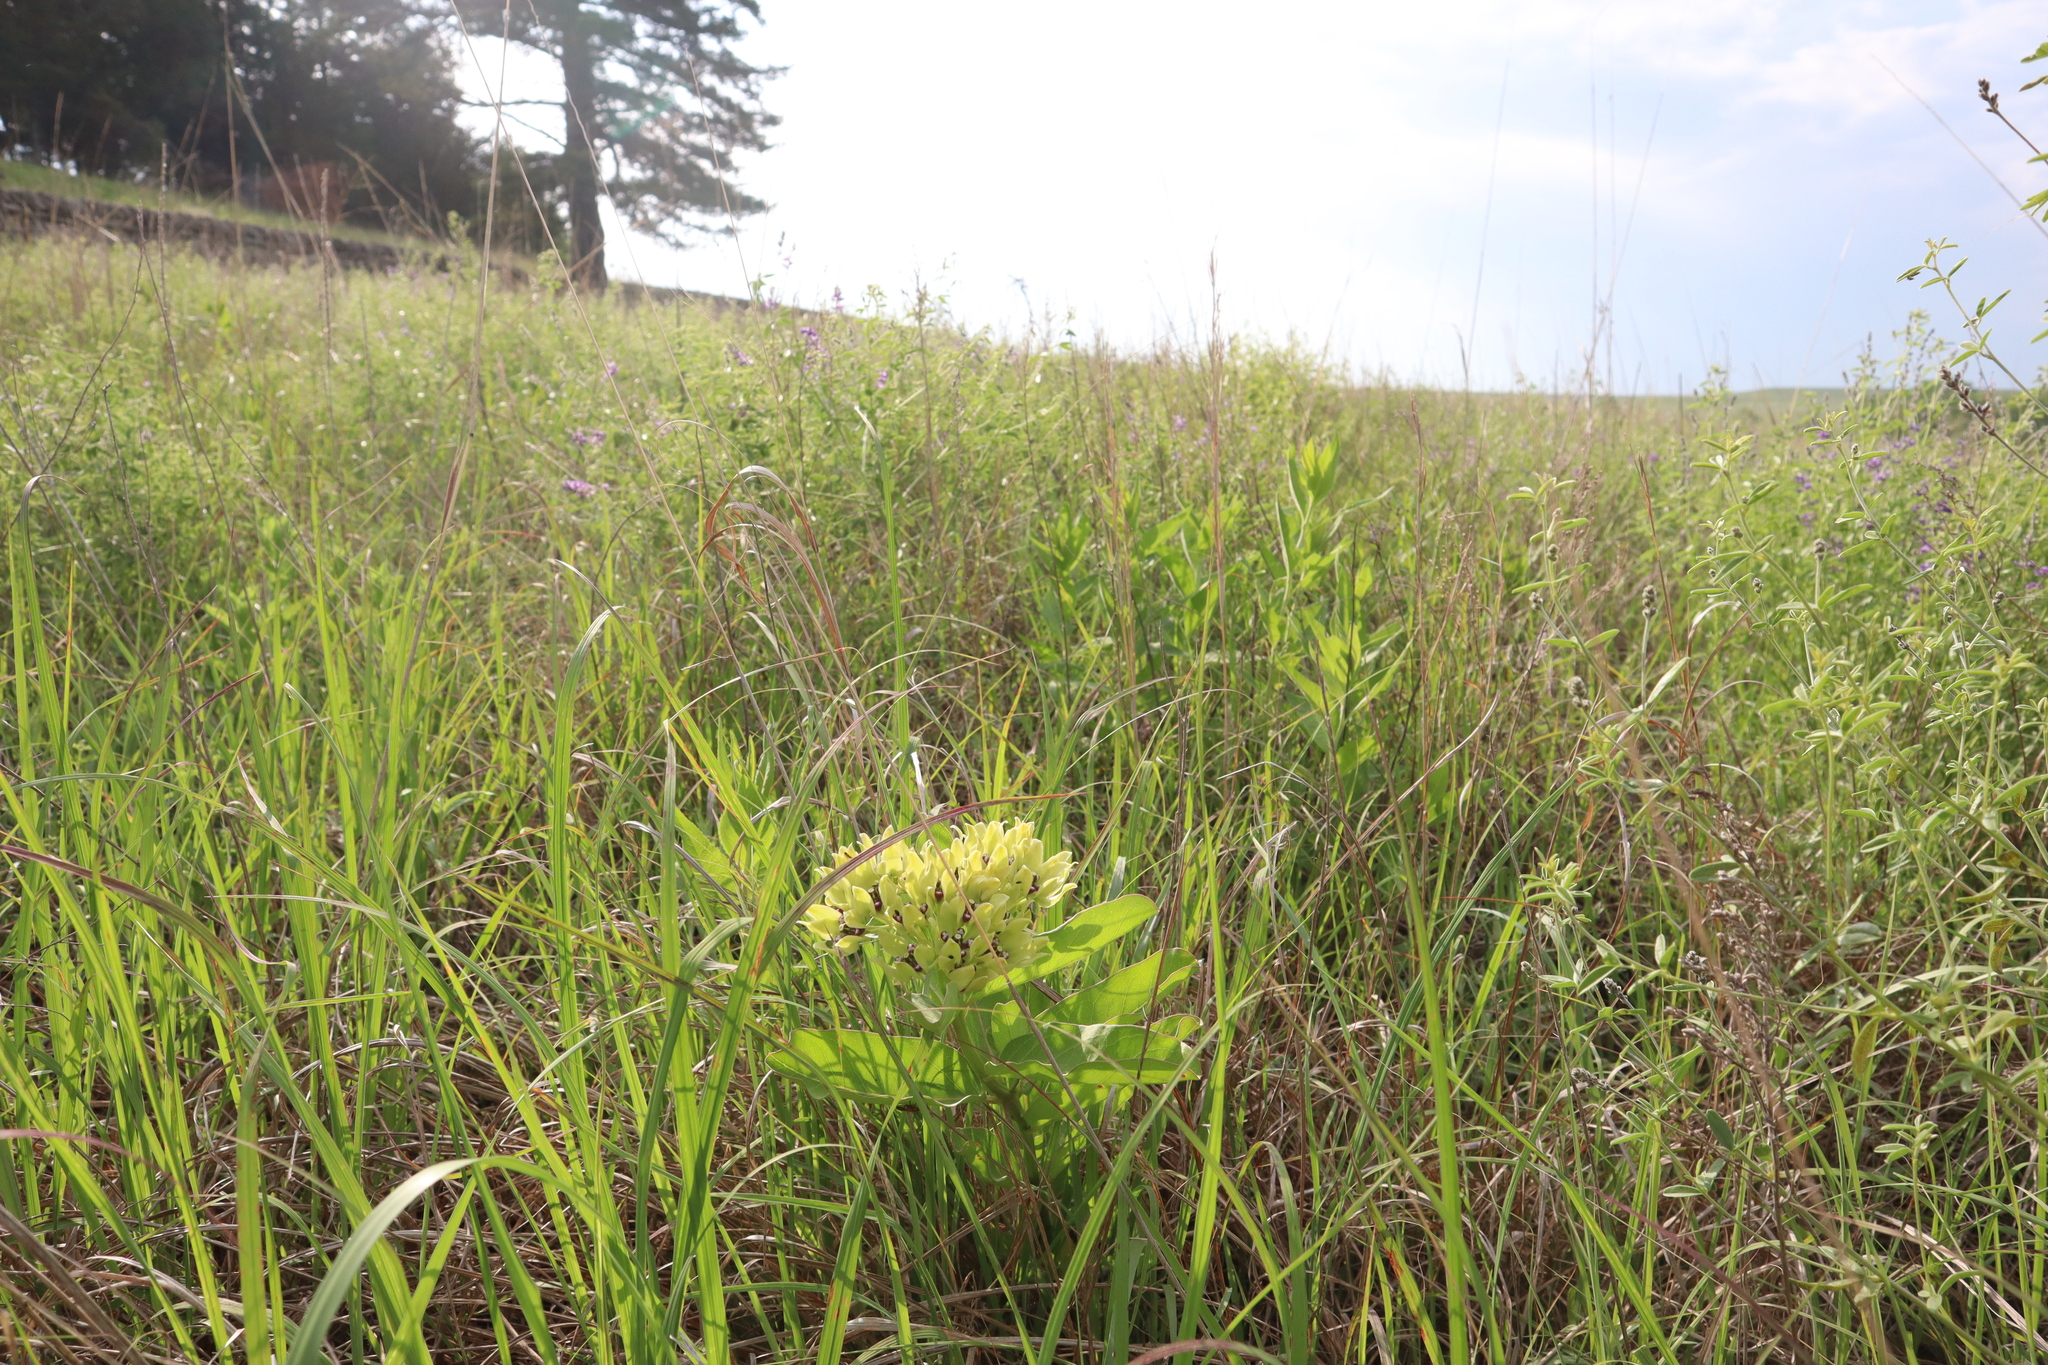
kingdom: Plantae
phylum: Tracheophyta
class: Magnoliopsida
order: Gentianales
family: Apocynaceae
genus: Asclepias
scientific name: Asclepias viridis
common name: Antelope-horns
